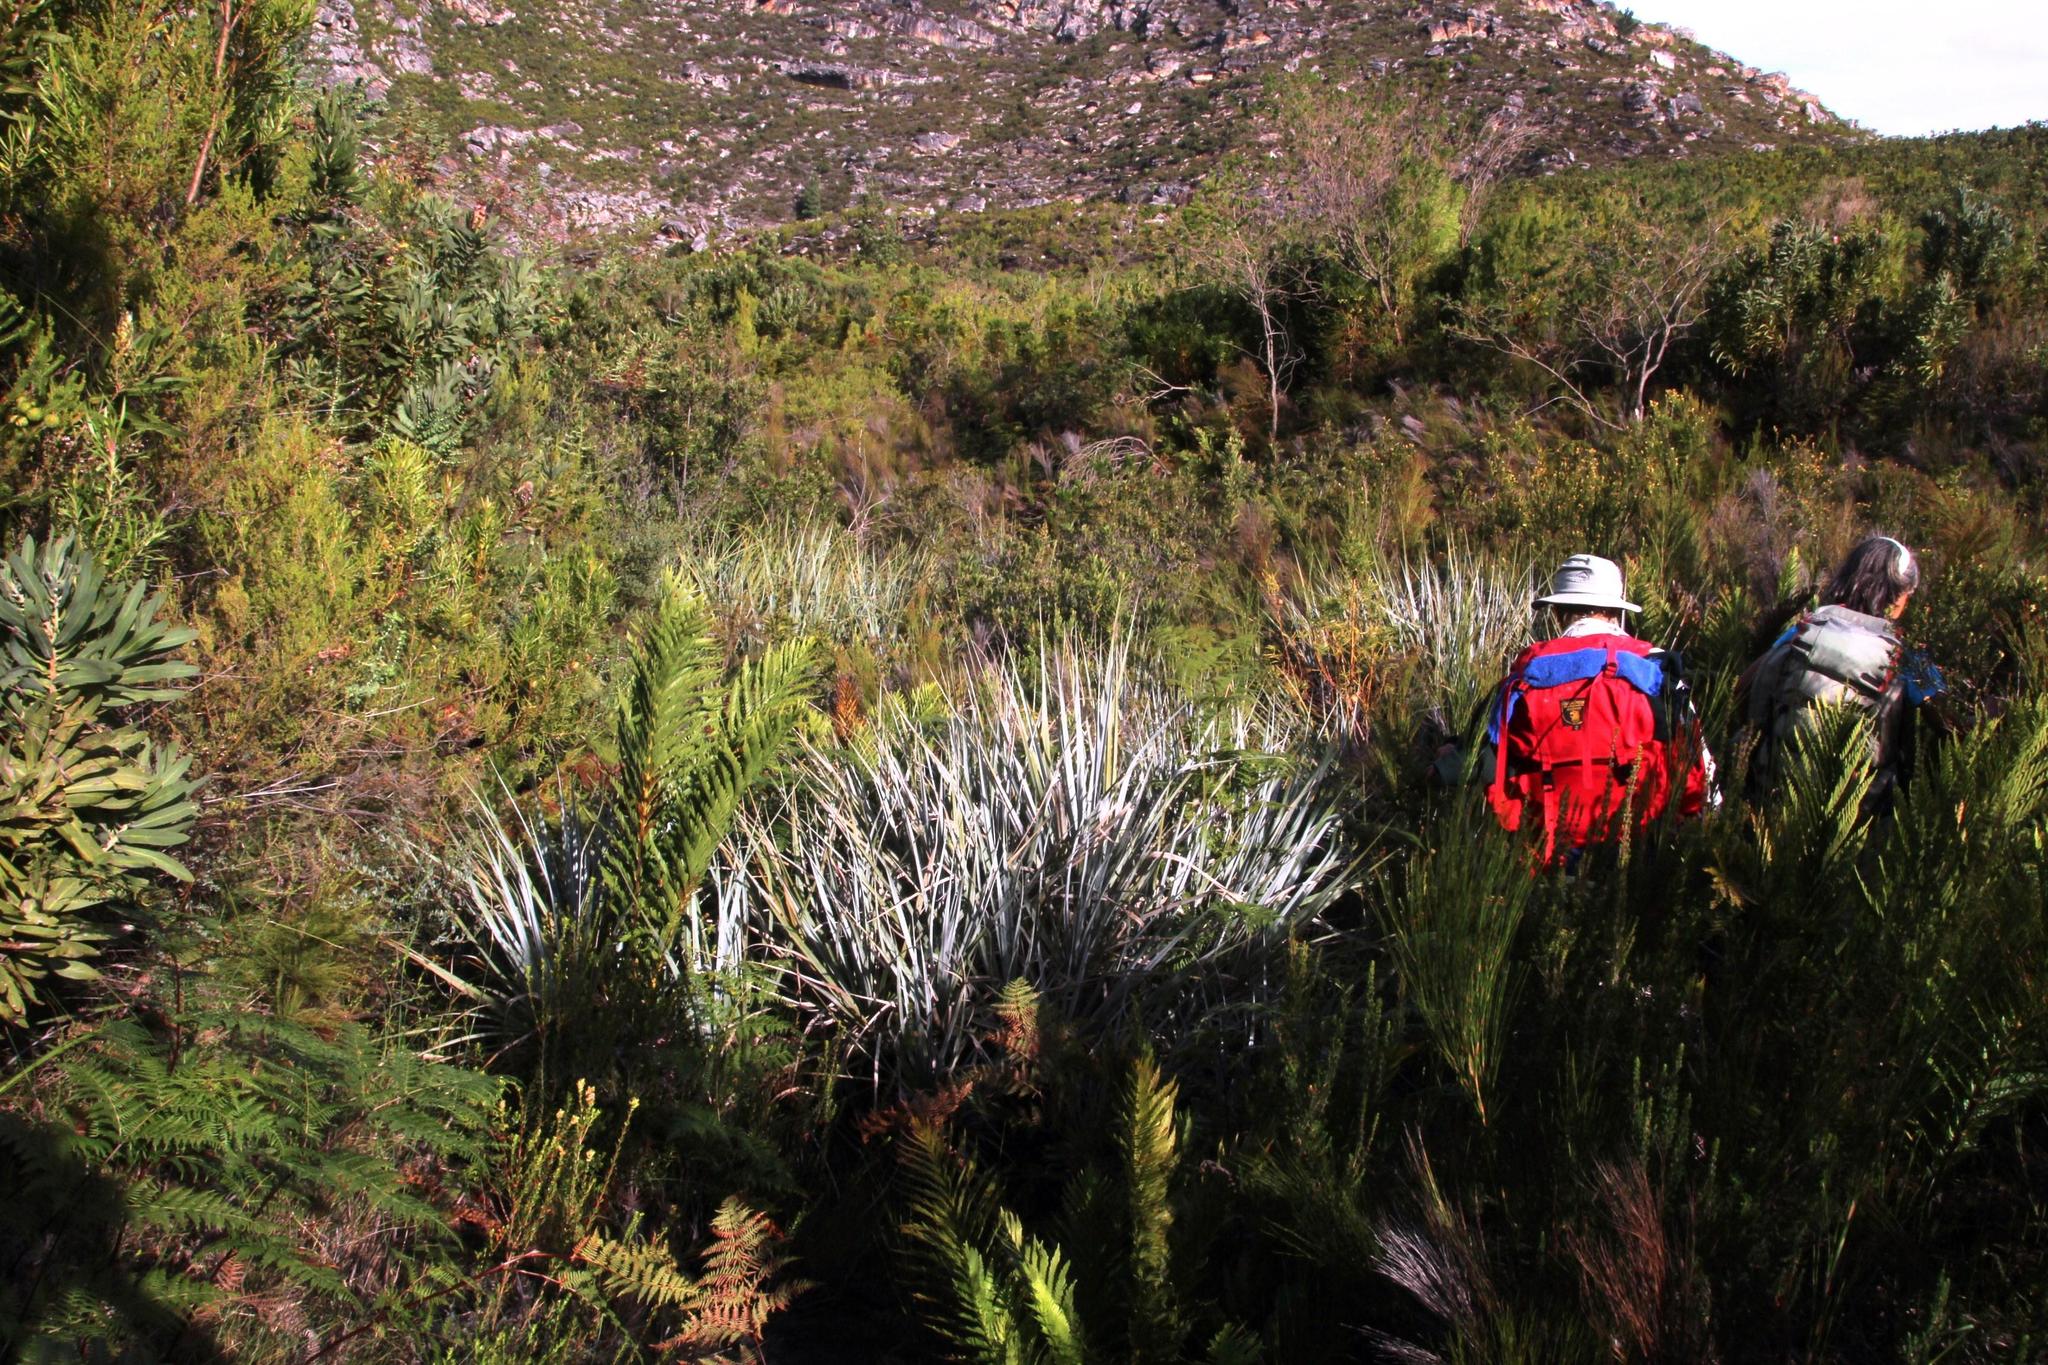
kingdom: Plantae
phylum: Tracheophyta
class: Liliopsida
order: Poales
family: Thurniaceae
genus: Prionium
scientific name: Prionium serratum
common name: Palmiet
